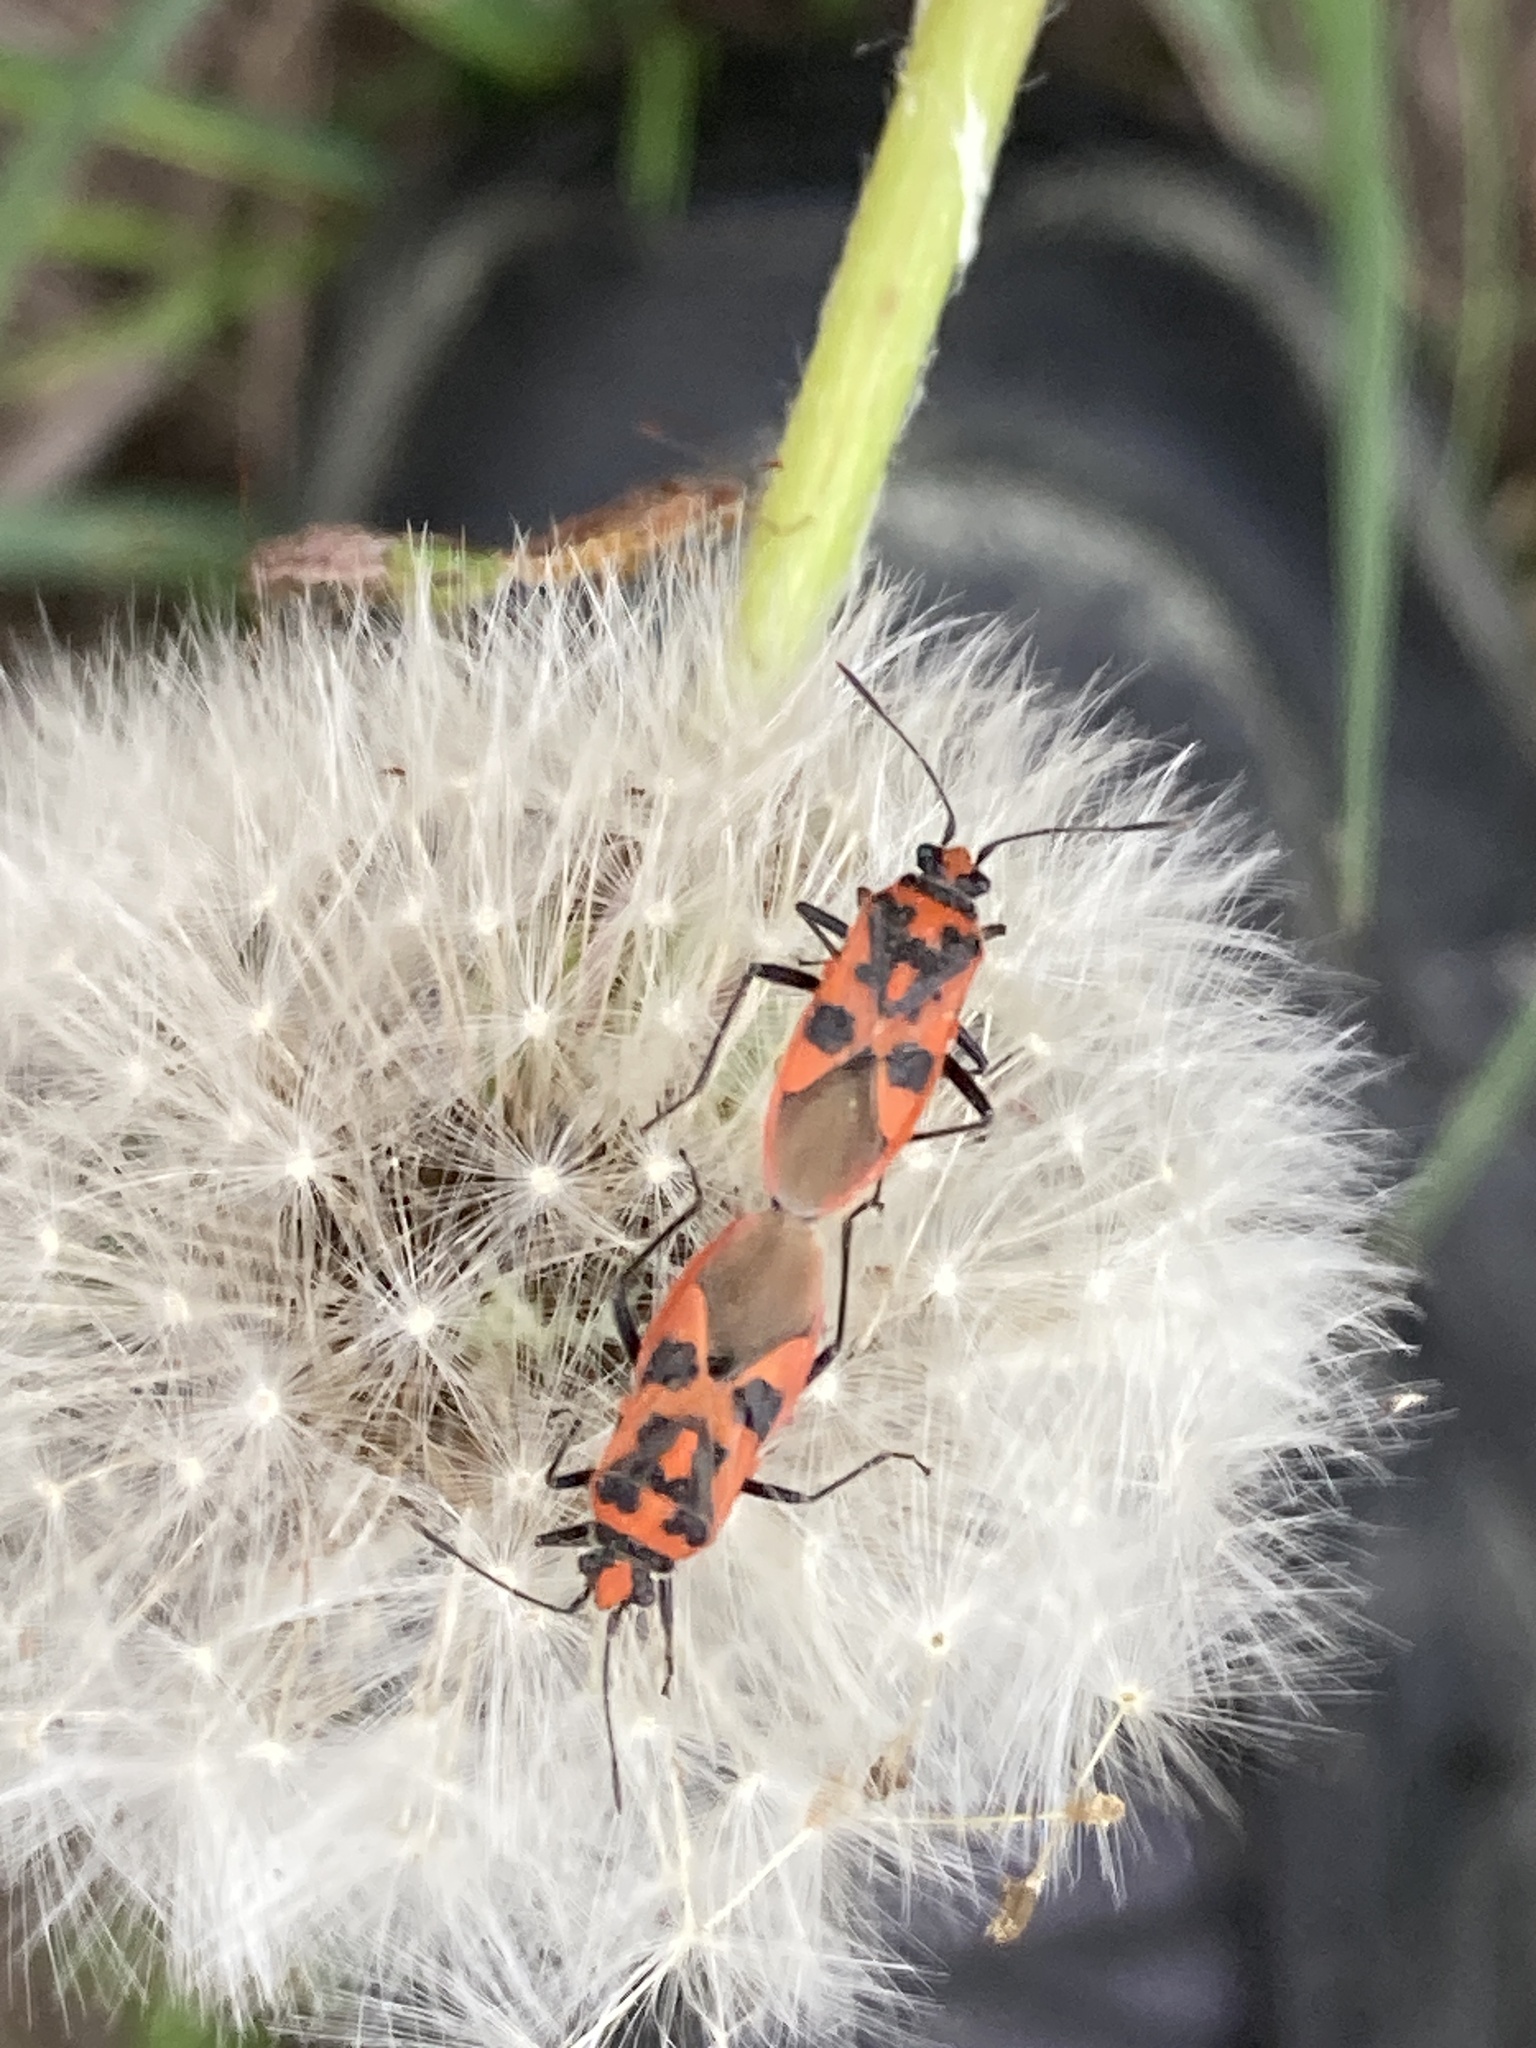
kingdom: Animalia
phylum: Arthropoda
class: Insecta
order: Hemiptera
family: Rhopalidae
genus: Corizus
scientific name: Corizus hyoscyami
